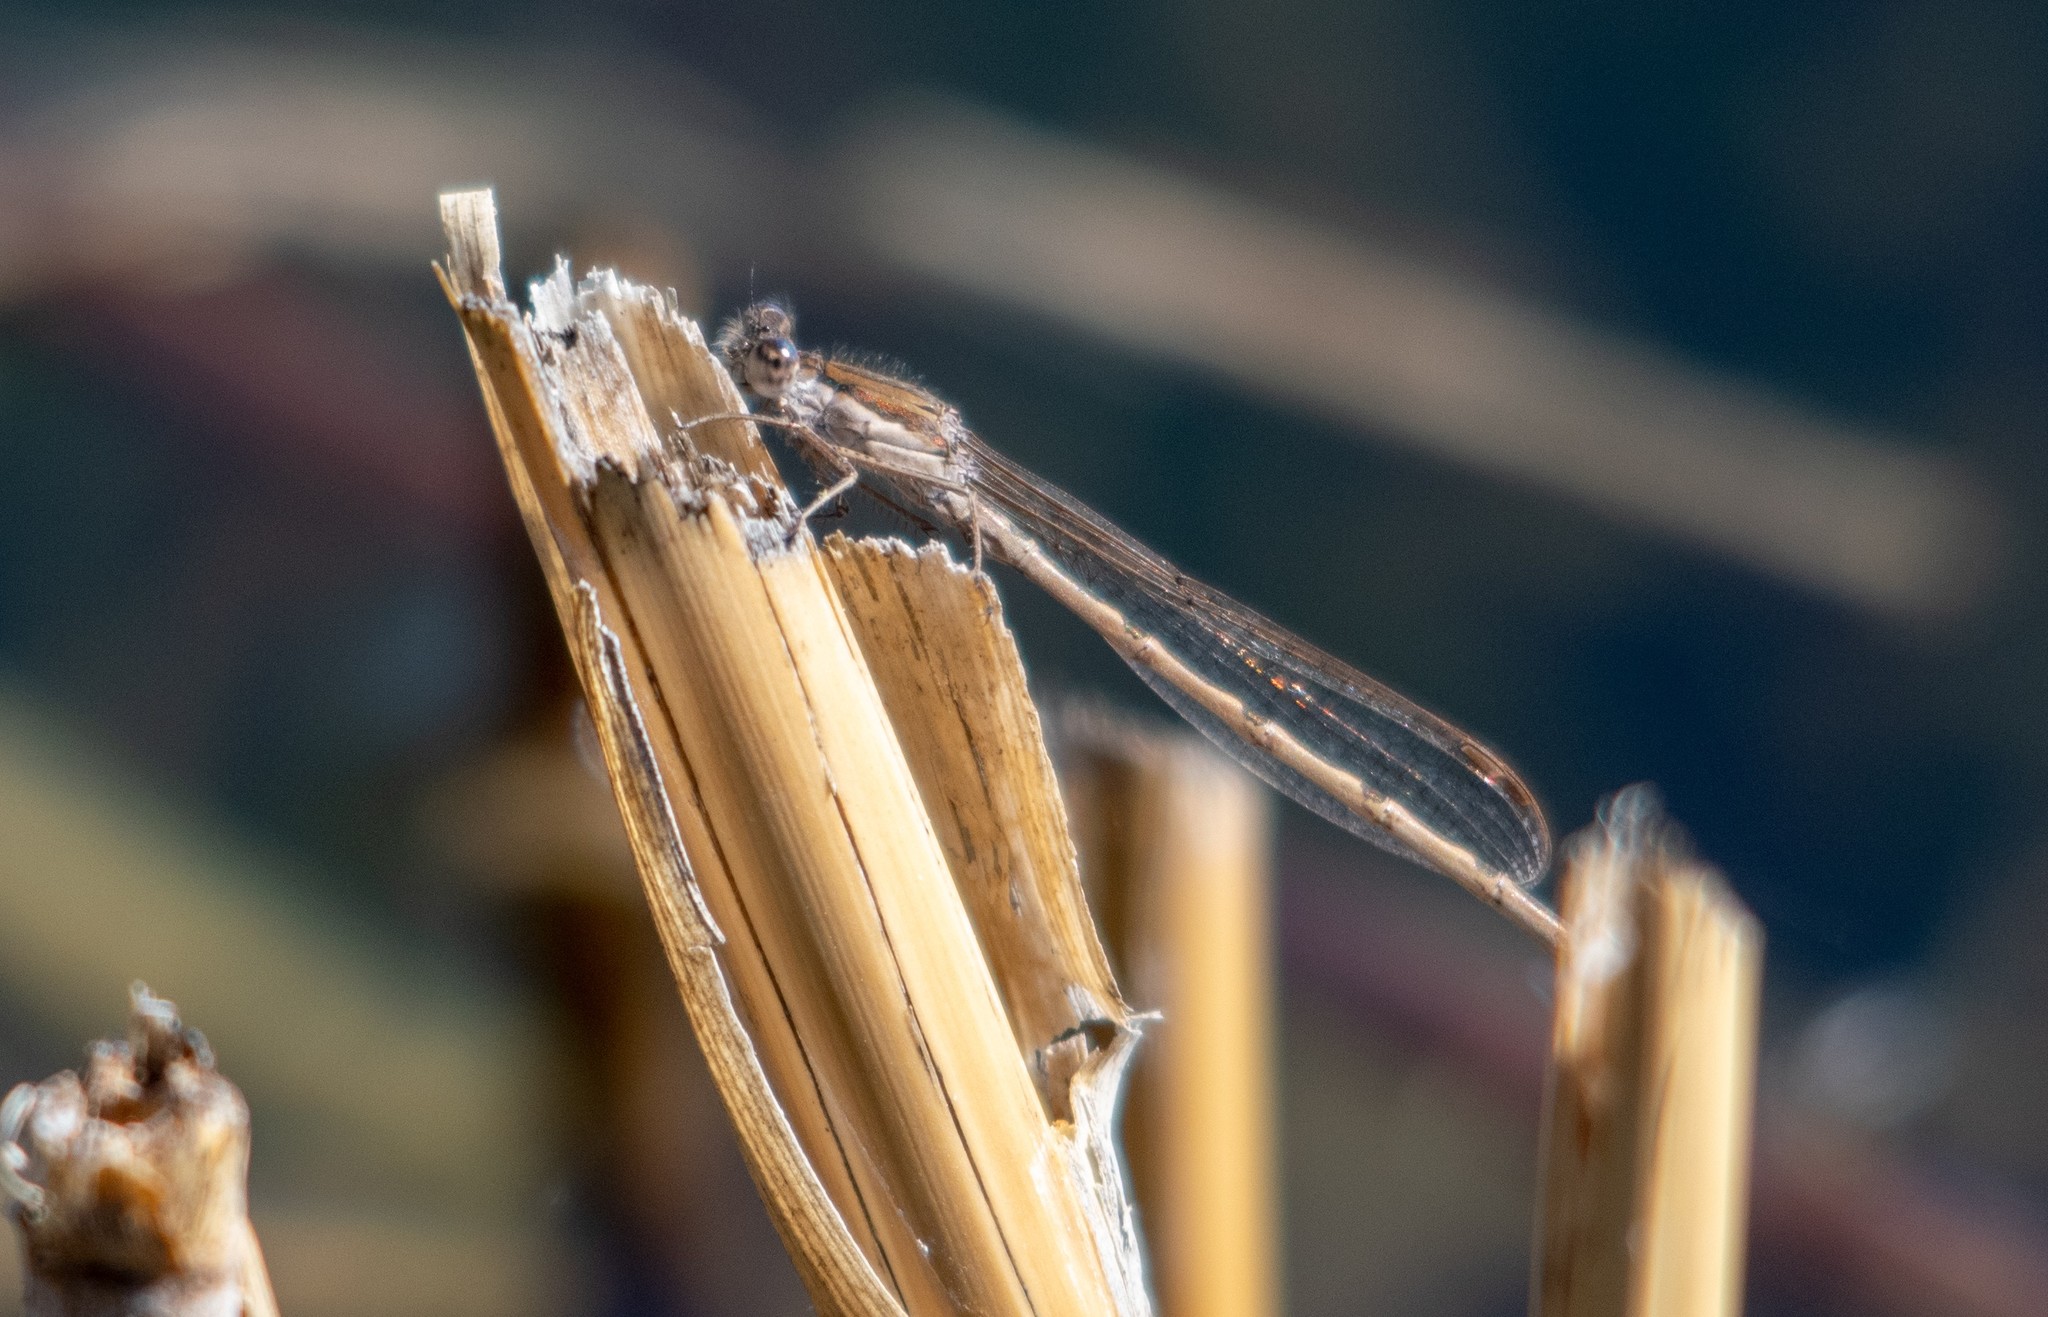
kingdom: Animalia
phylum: Arthropoda
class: Insecta
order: Odonata
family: Lestidae
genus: Sympecma
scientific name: Sympecma fusca
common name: Common winter damsel
